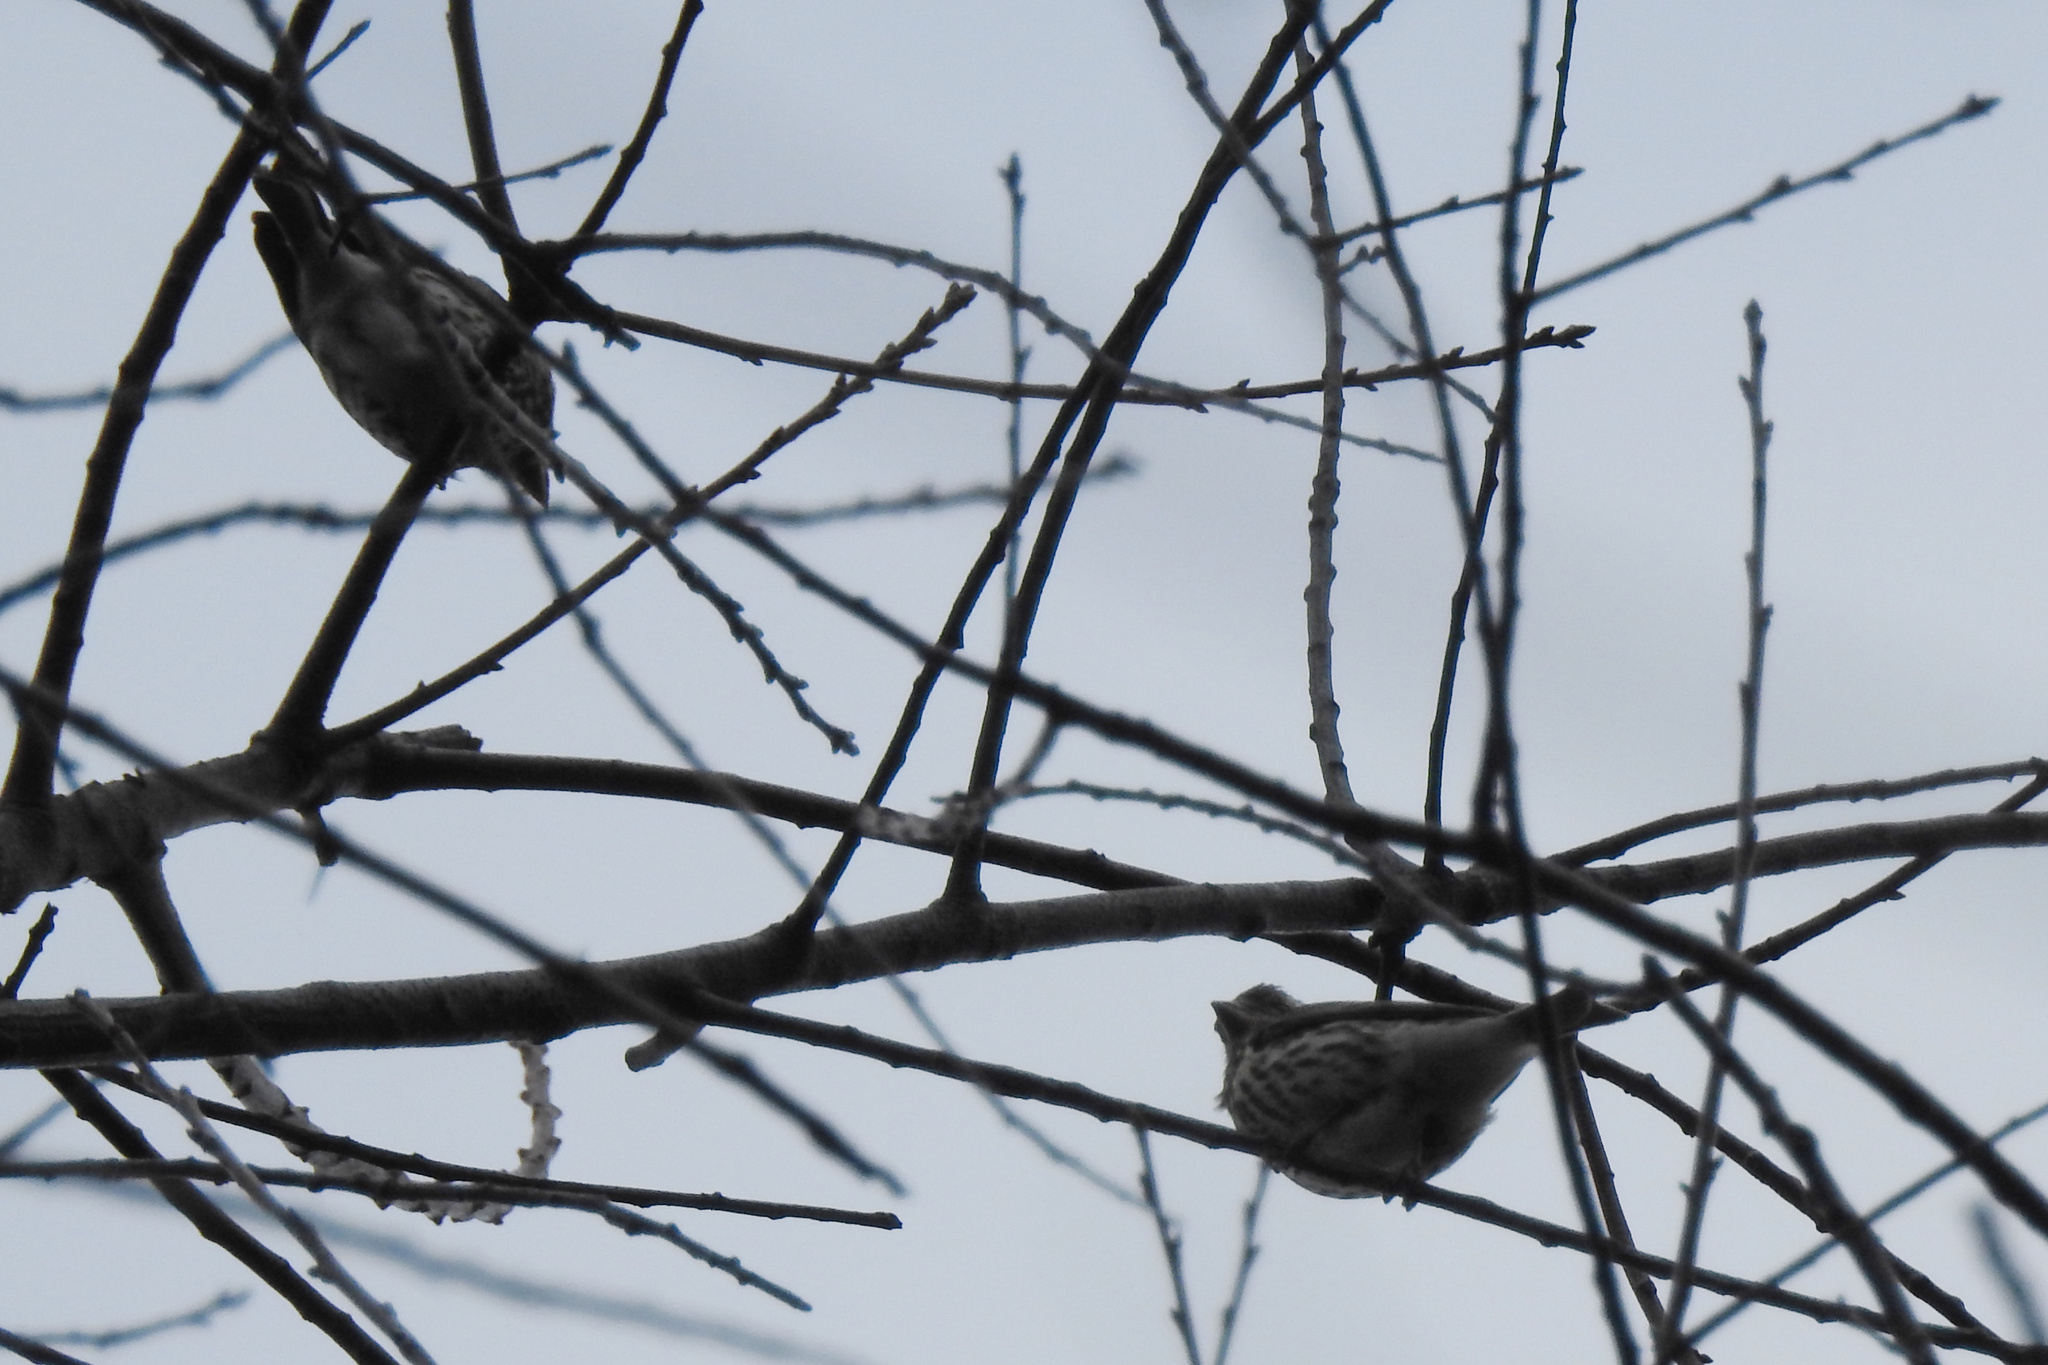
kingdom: Animalia
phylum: Chordata
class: Aves
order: Passeriformes
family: Fringillidae
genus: Haemorhous
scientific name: Haemorhous purpureus
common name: Purple finch
